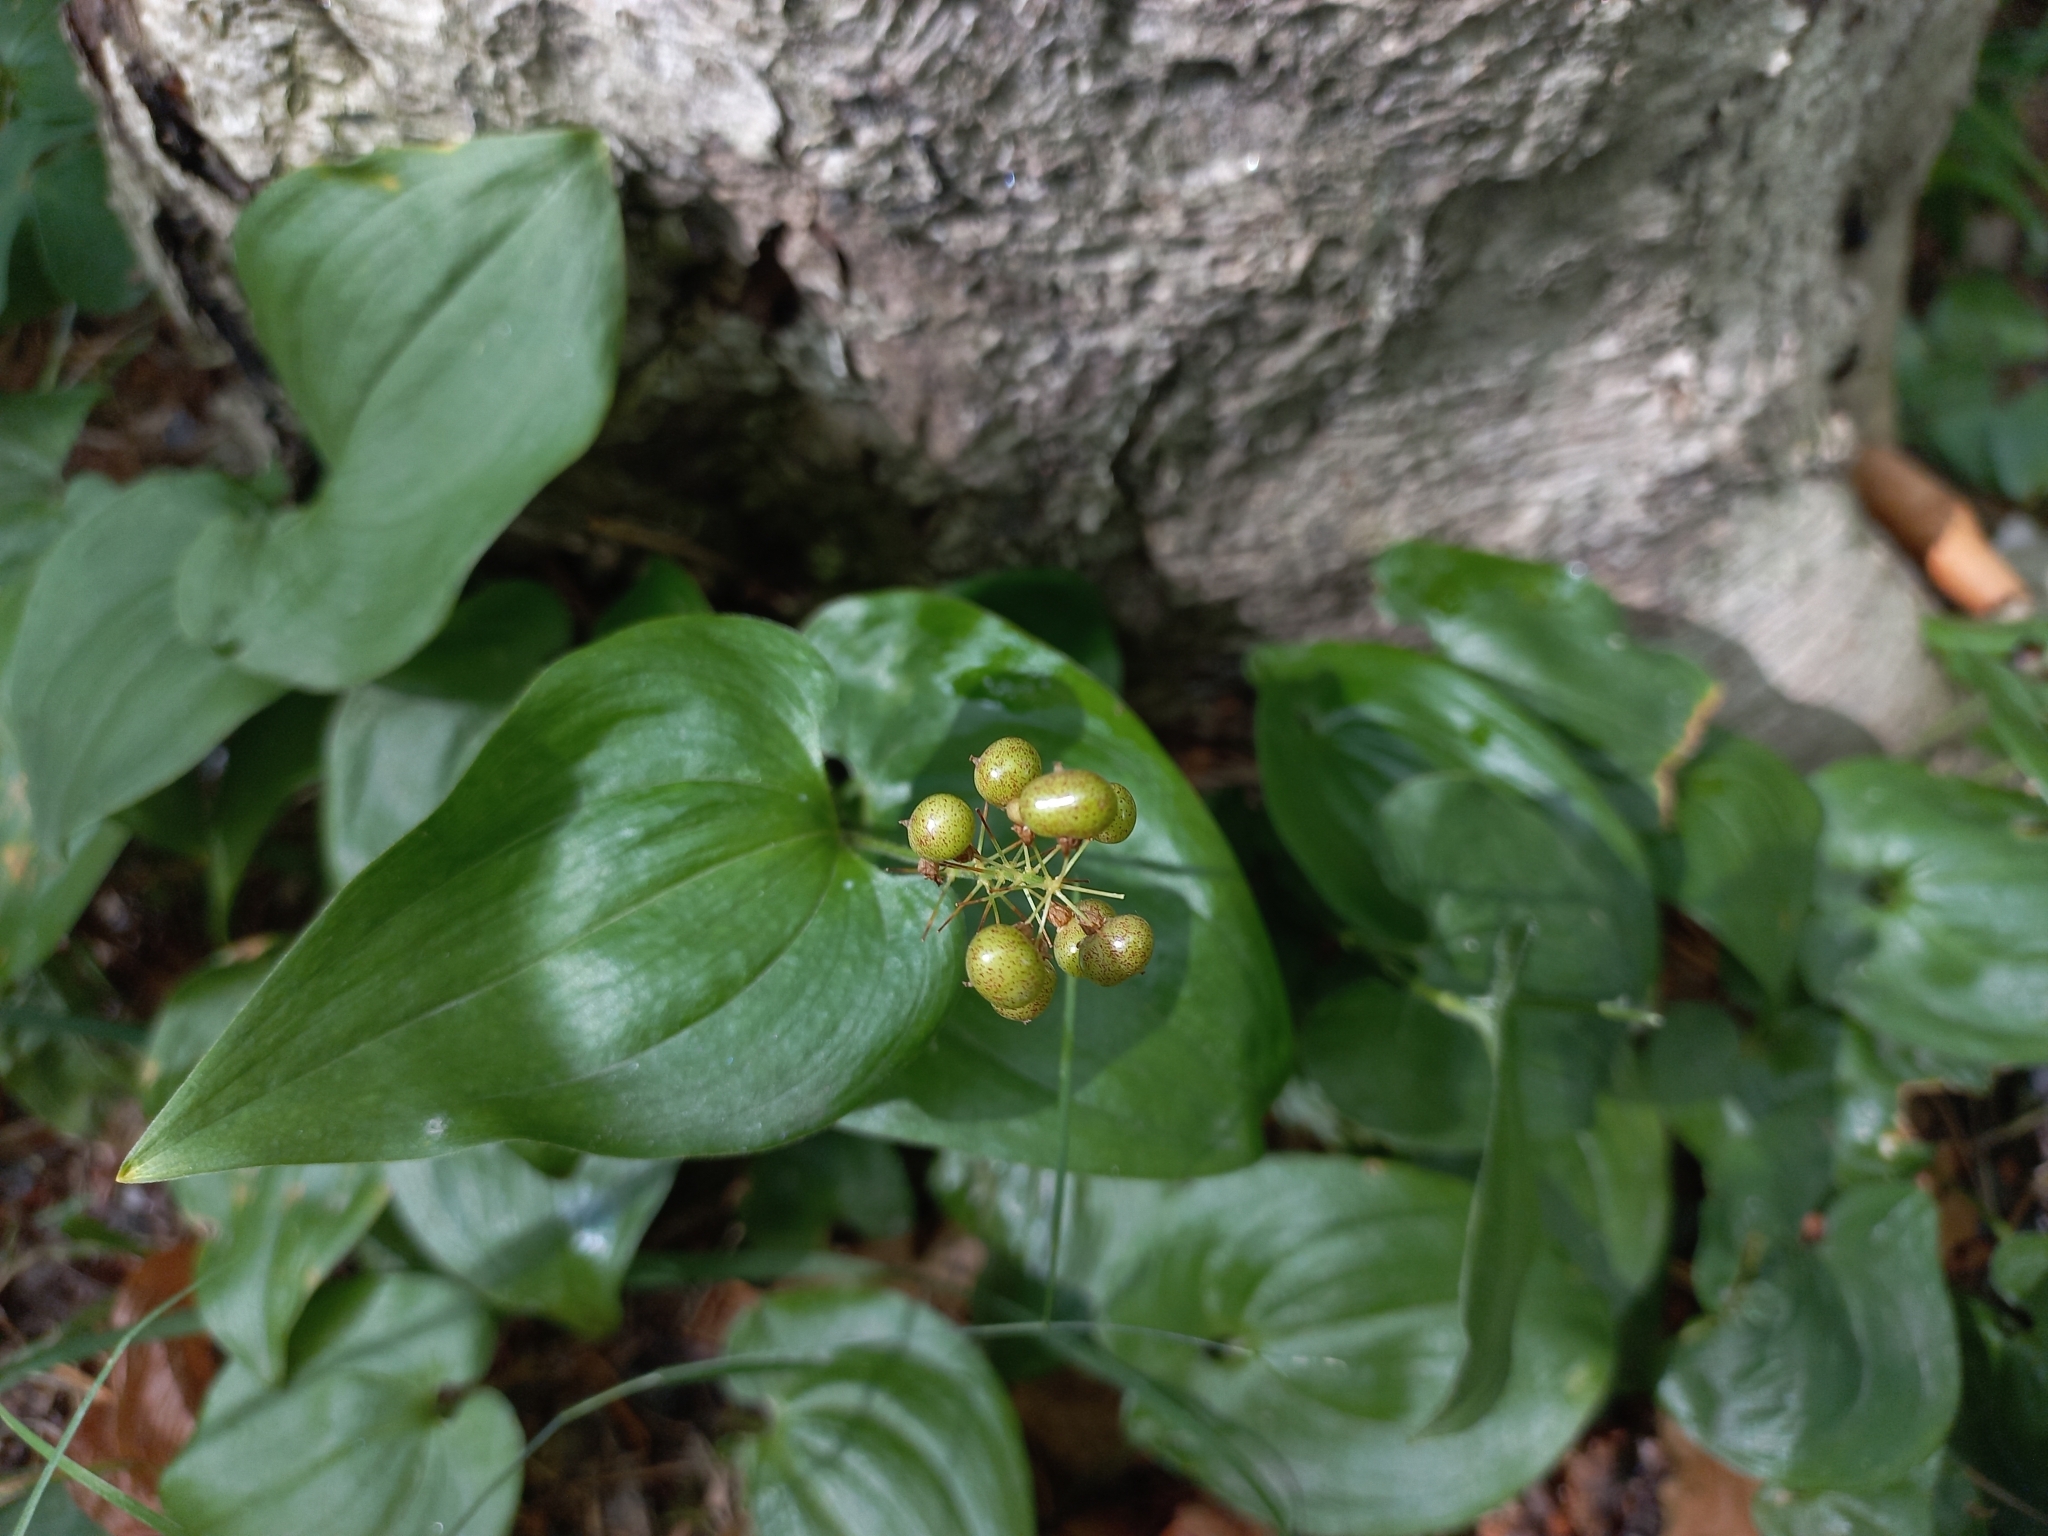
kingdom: Plantae
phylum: Tracheophyta
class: Liliopsida
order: Asparagales
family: Asparagaceae
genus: Maianthemum
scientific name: Maianthemum bifolium
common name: May lily
